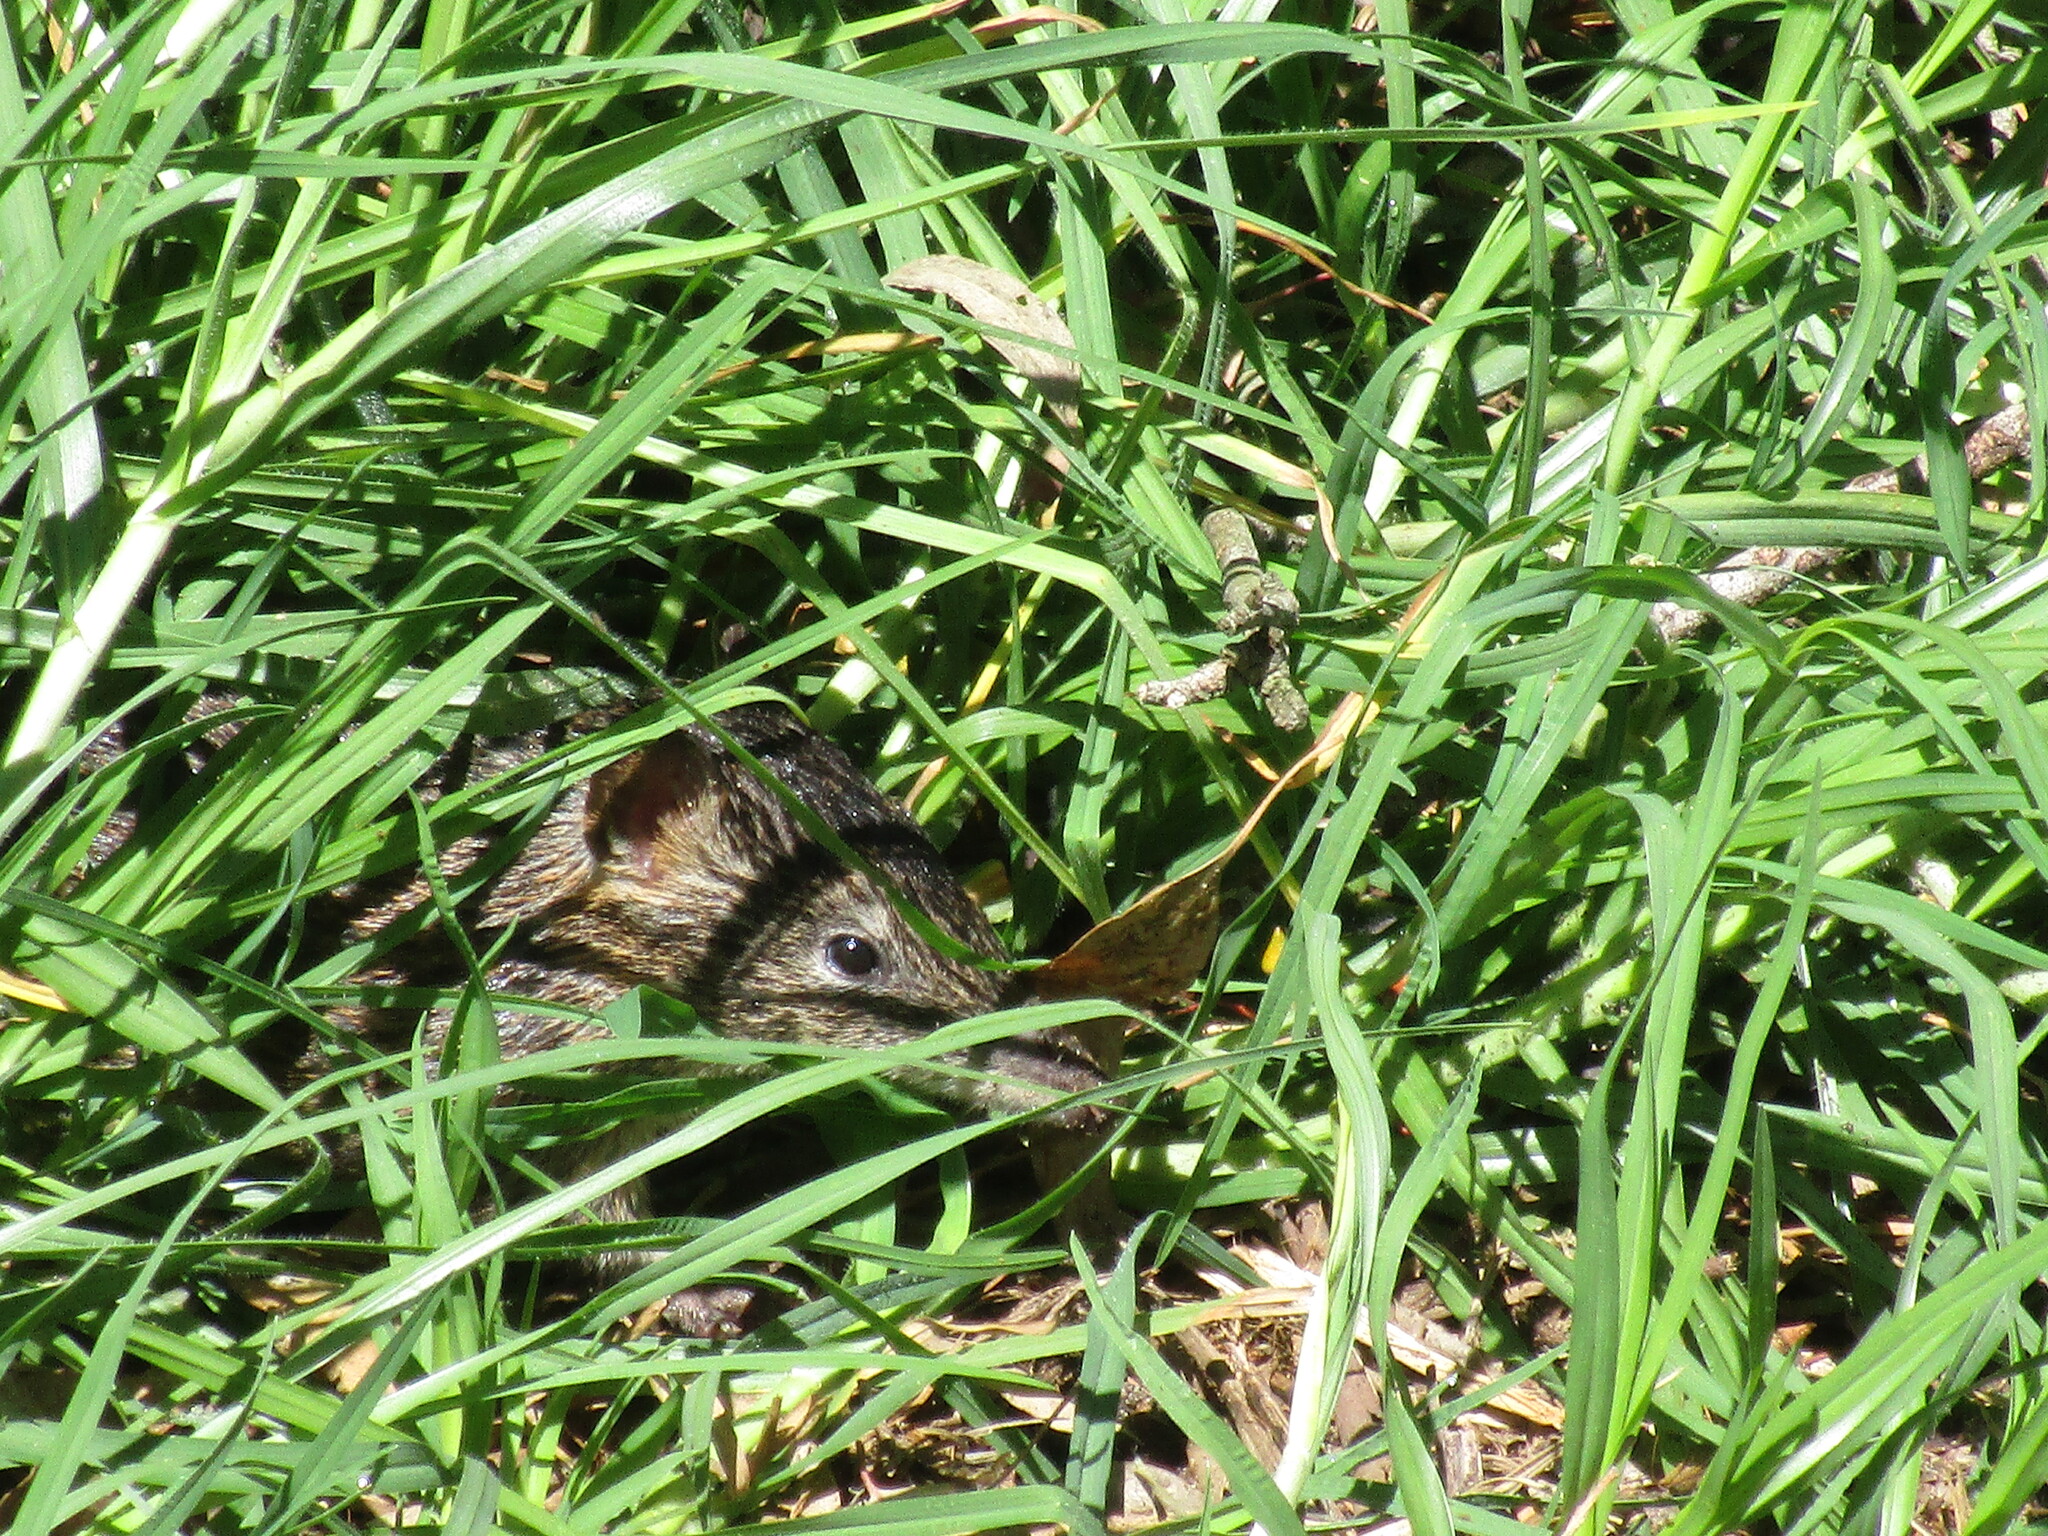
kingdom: Animalia
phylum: Chordata
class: Mammalia
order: Peramelemorphia
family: Peramelidae
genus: Isoodon
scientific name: Isoodon fusciventer
